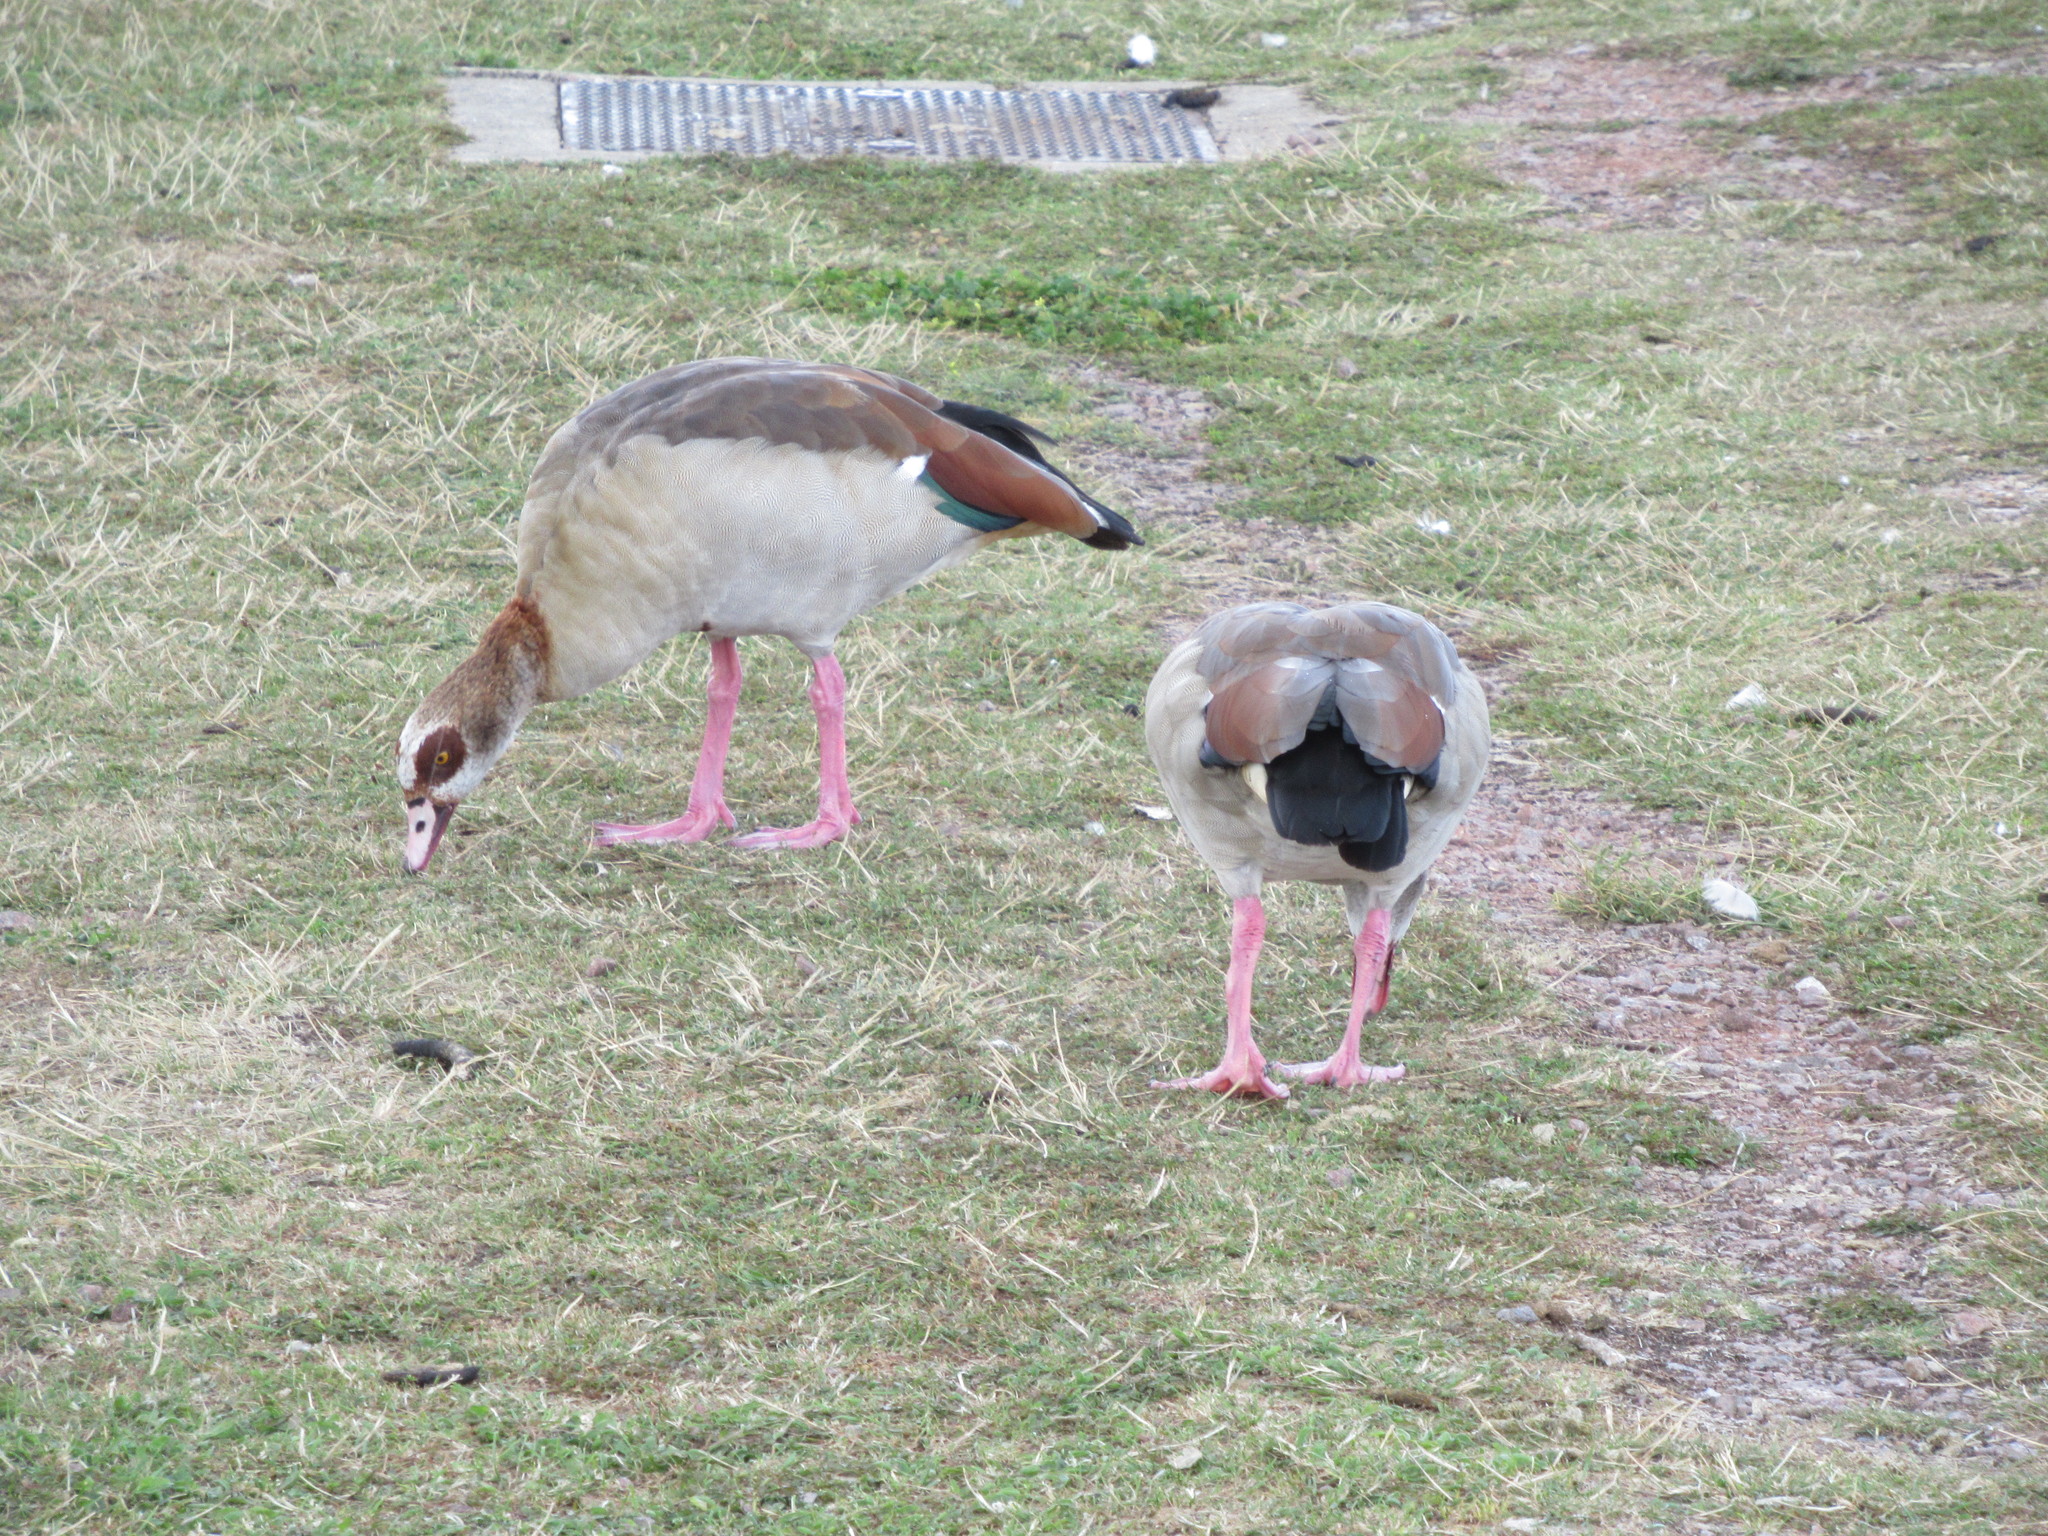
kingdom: Animalia
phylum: Chordata
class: Aves
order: Anseriformes
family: Anatidae
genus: Alopochen
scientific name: Alopochen aegyptiaca
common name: Egyptian goose
